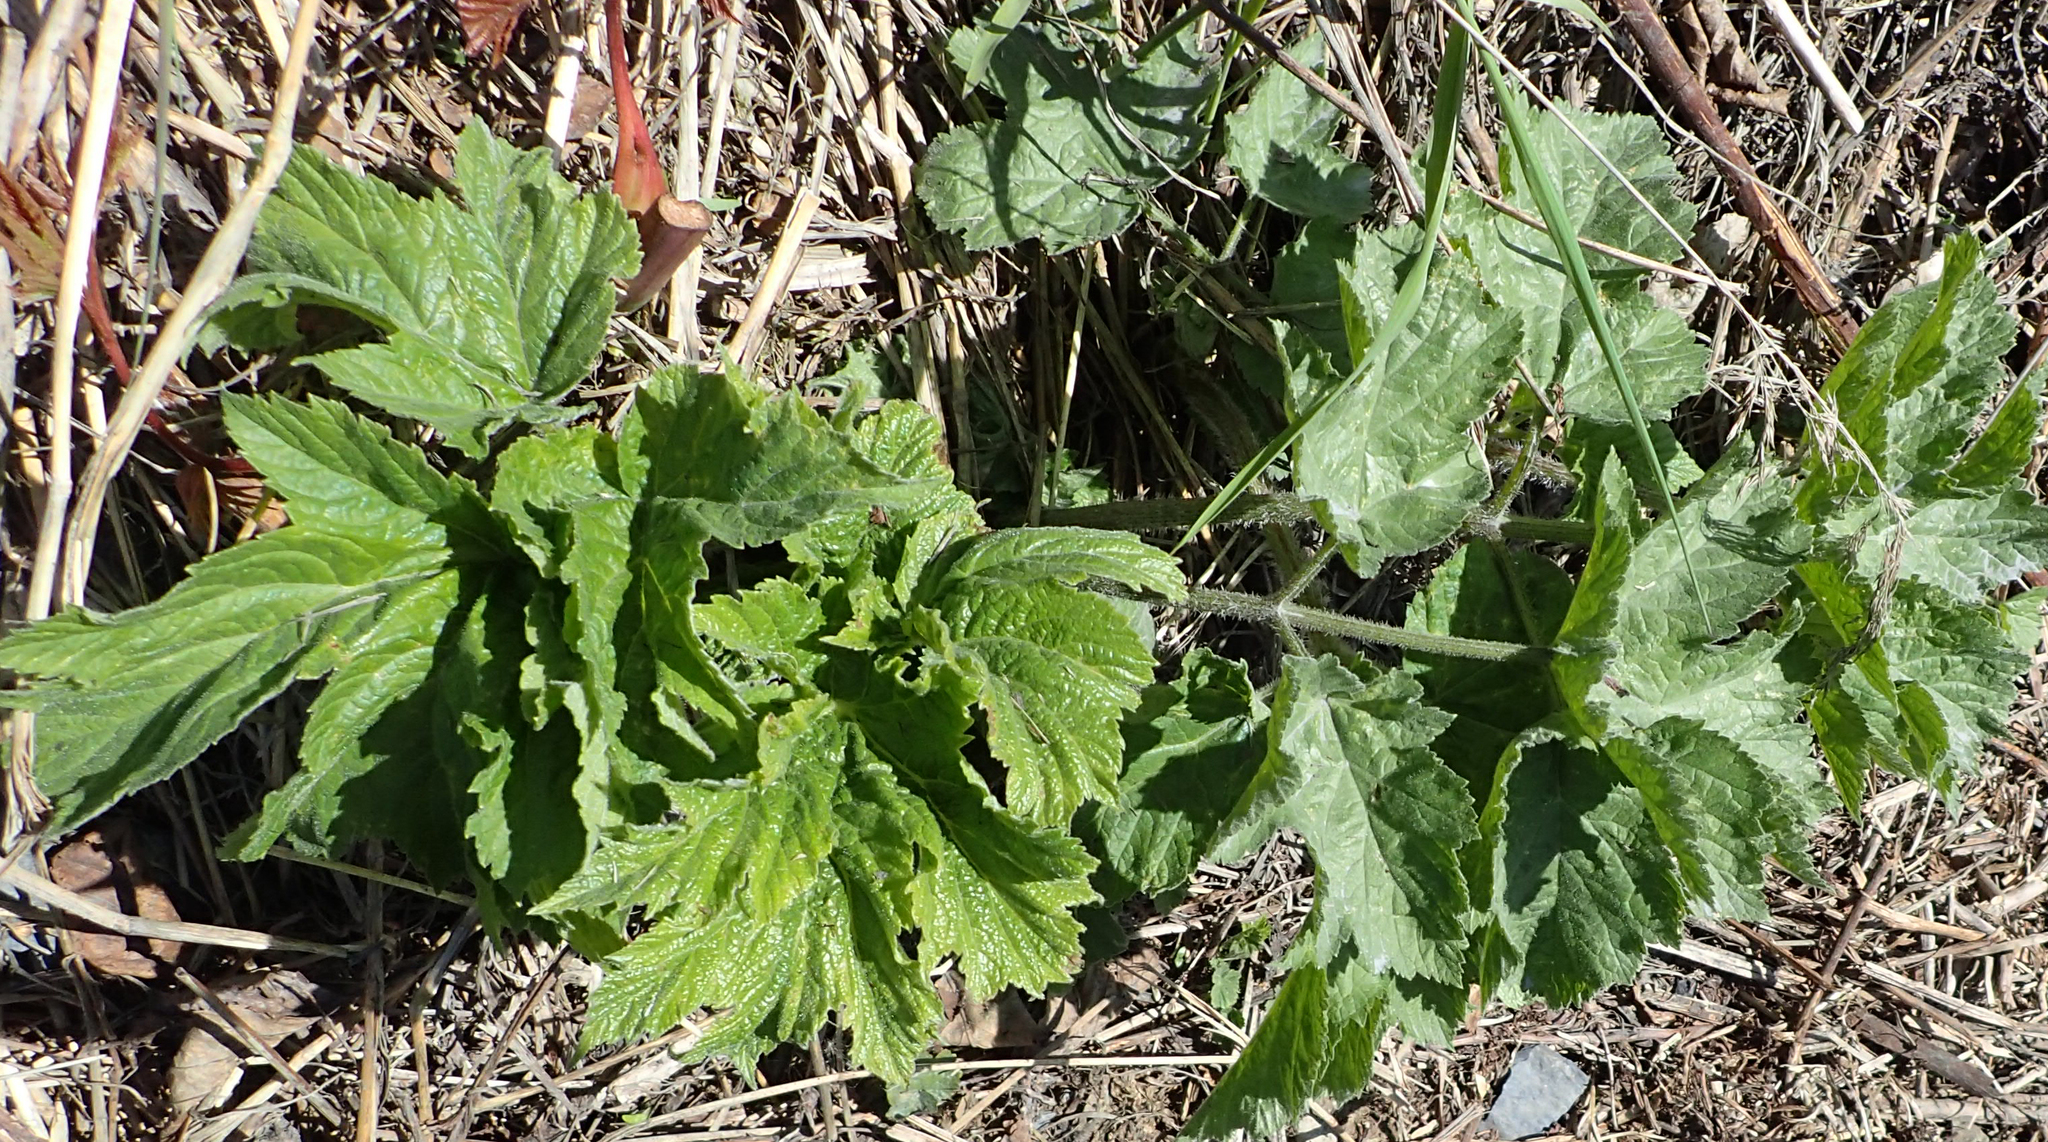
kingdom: Plantae
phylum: Tracheophyta
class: Magnoliopsida
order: Apiales
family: Apiaceae
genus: Heracleum
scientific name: Heracleum maximum
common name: American cow parsnip
